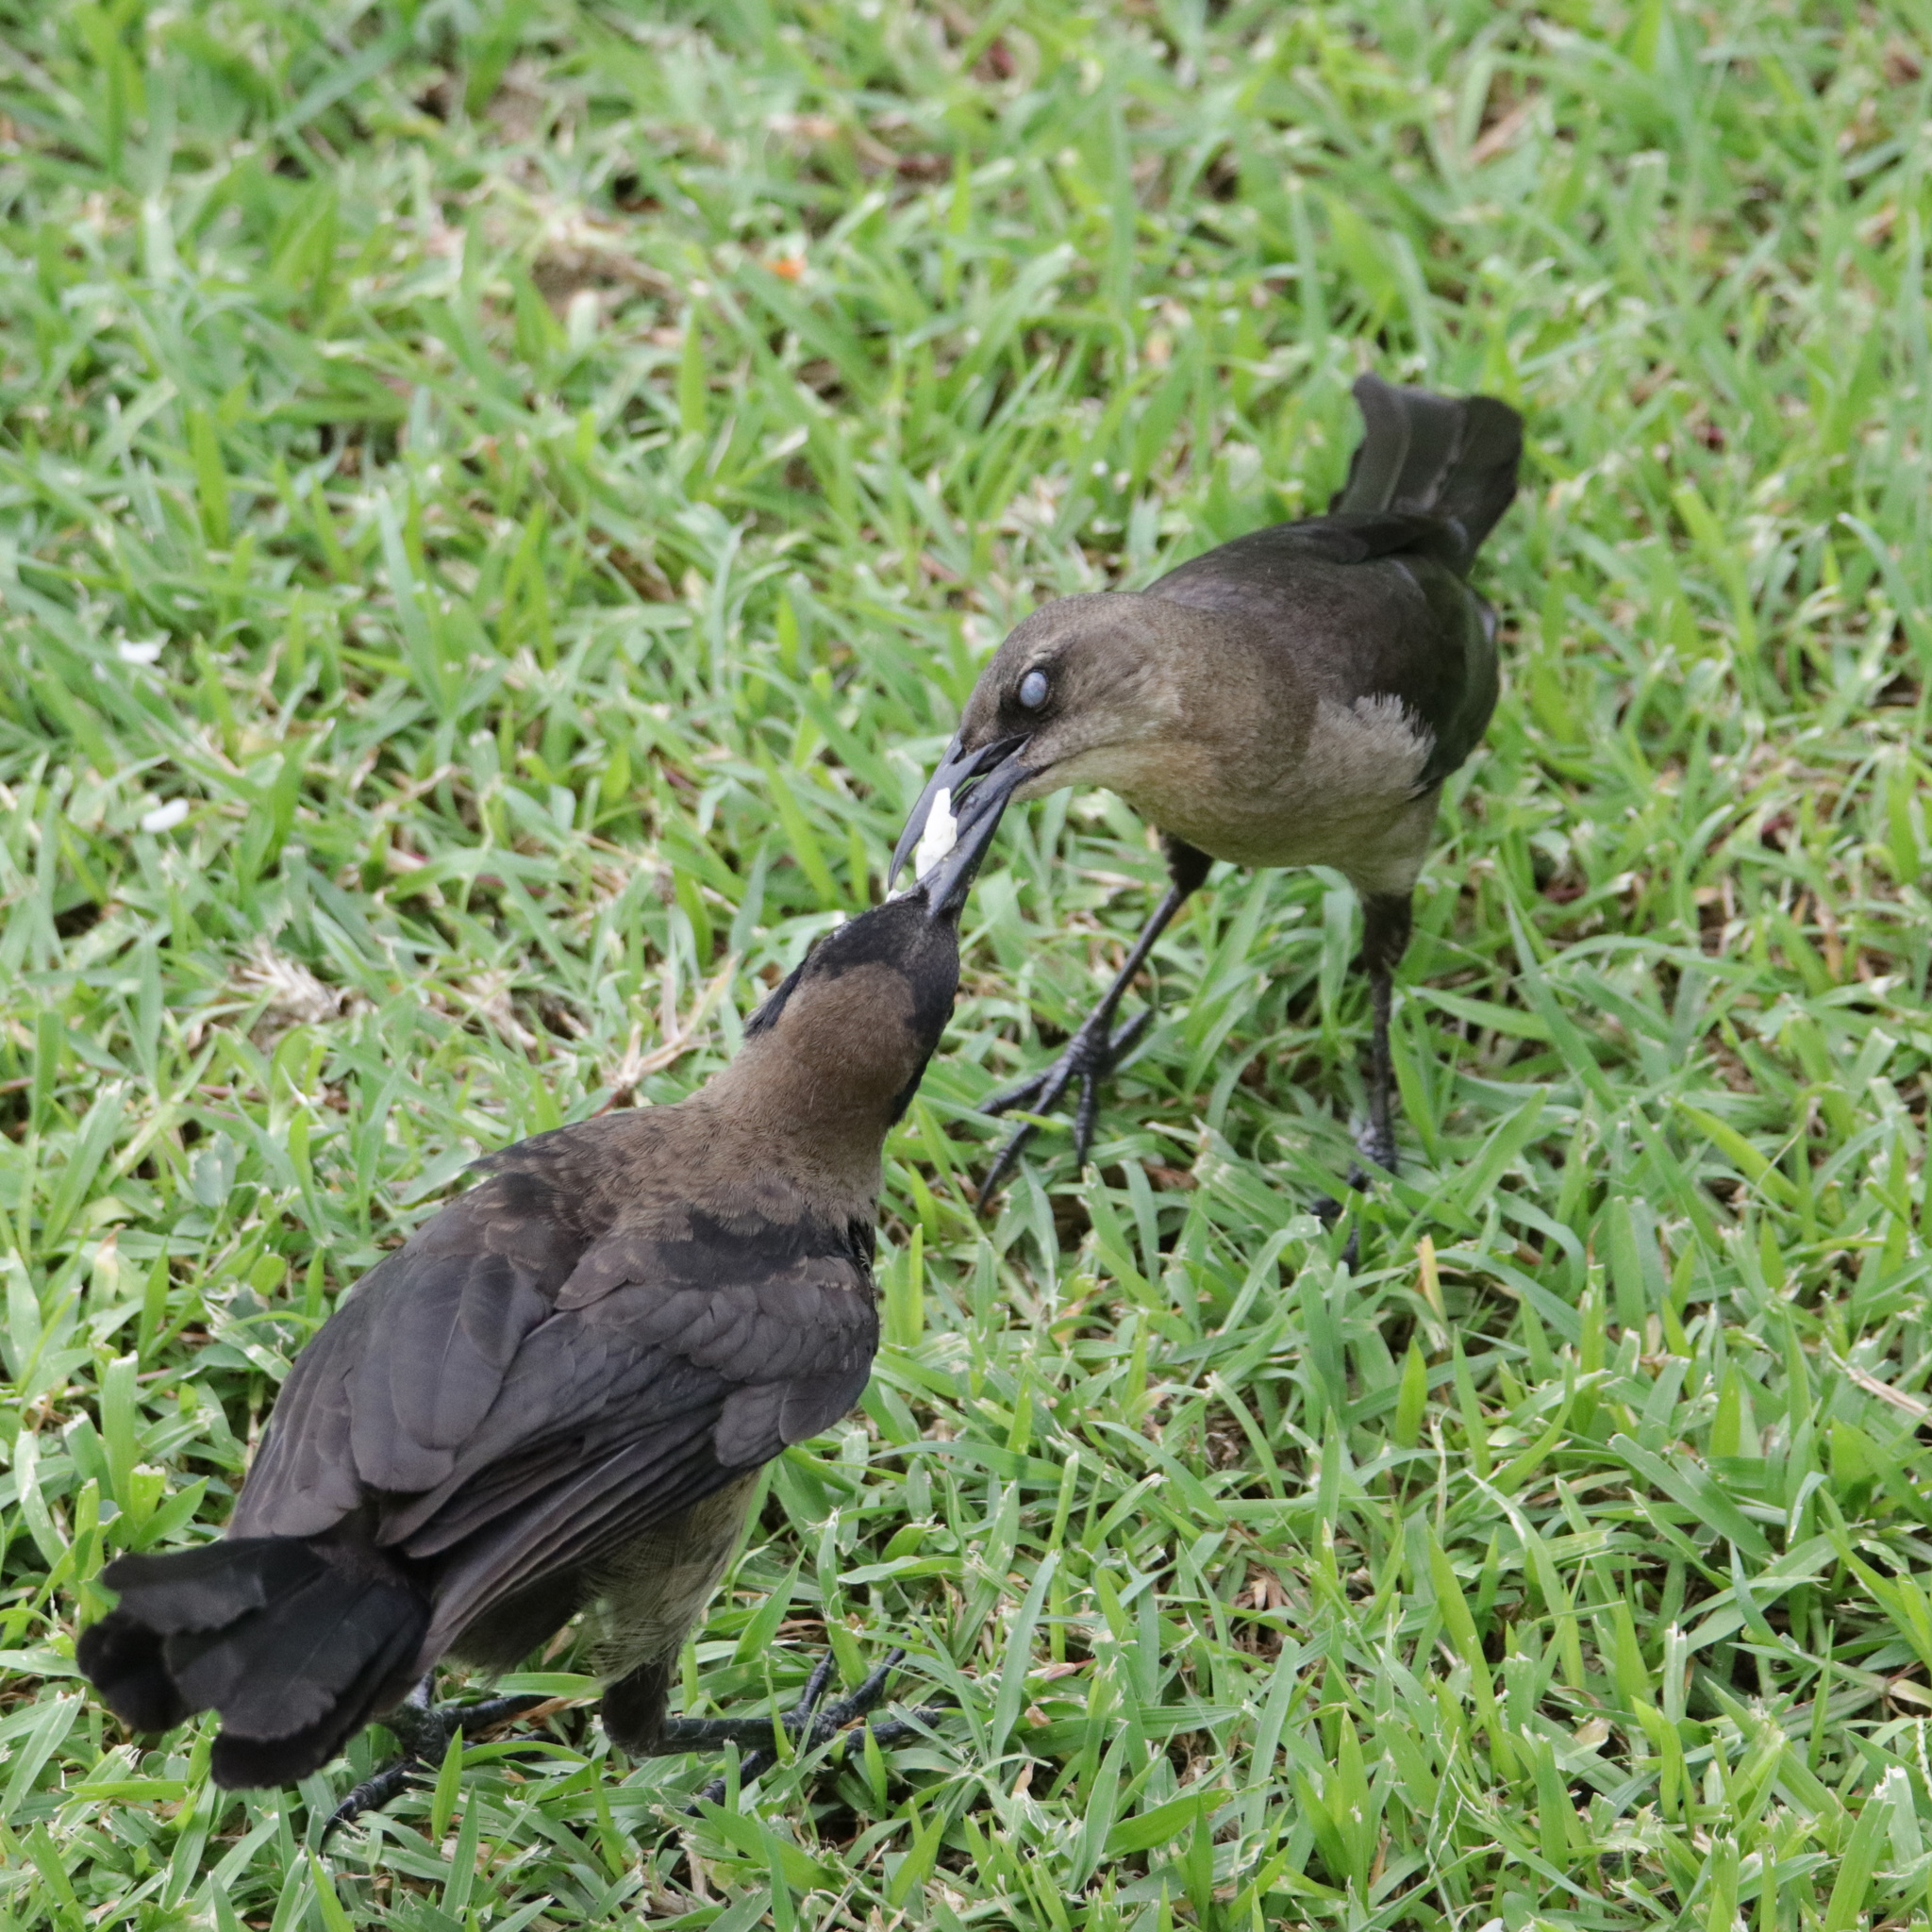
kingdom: Animalia
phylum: Chordata
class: Aves
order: Passeriformes
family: Icteridae
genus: Quiscalus
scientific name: Quiscalus mexicanus
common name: Great-tailed grackle
